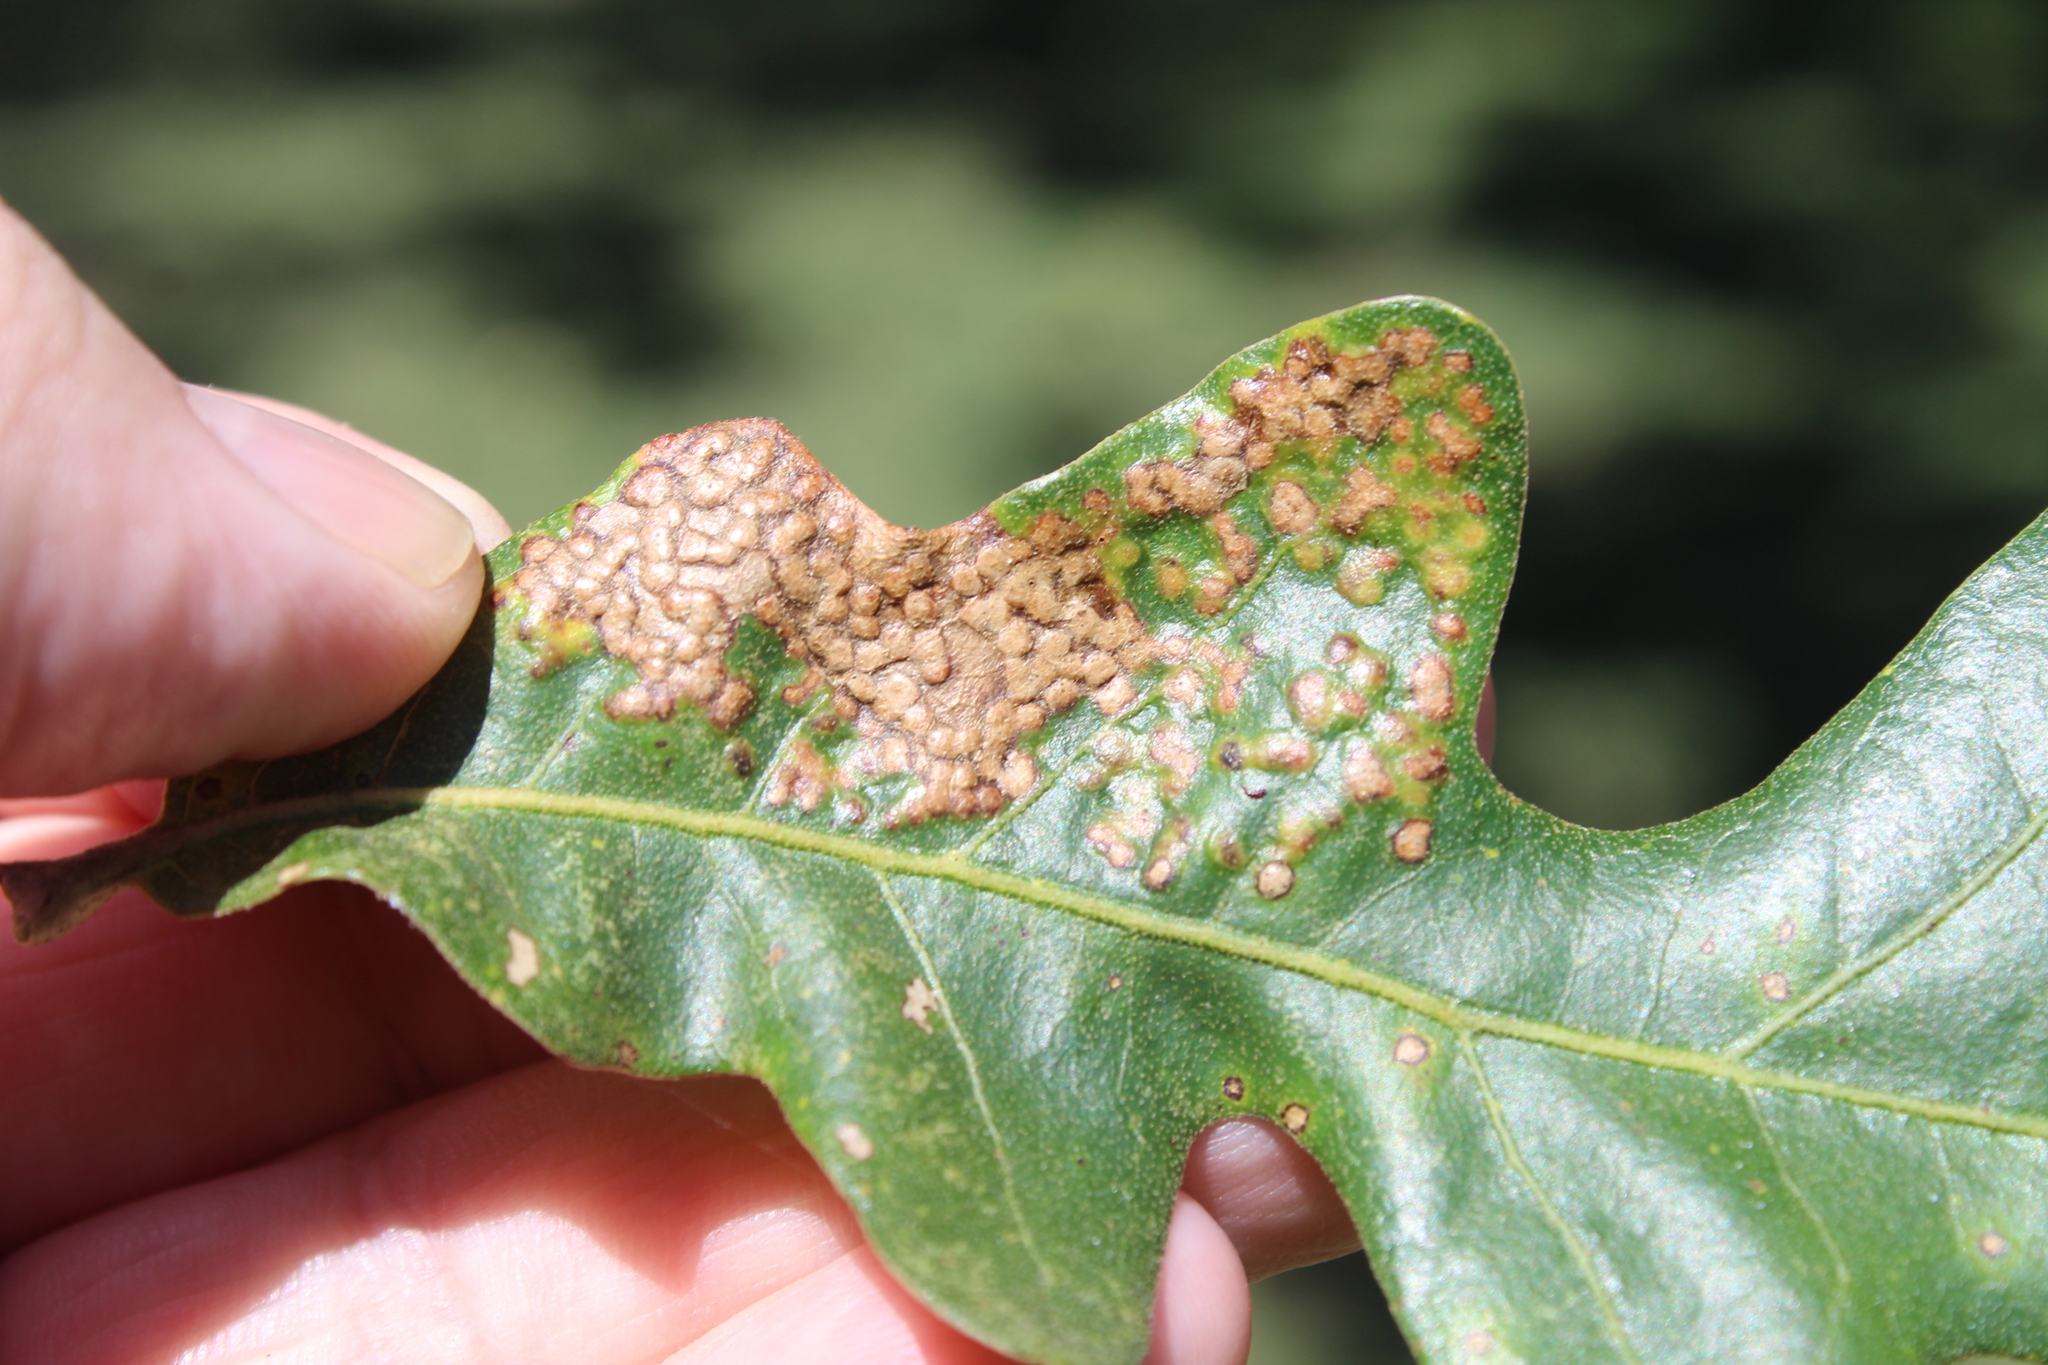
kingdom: Animalia
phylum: Arthropoda
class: Insecta
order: Hymenoptera
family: Cynipidae
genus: Neuroterus
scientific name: Neuroterus niger
